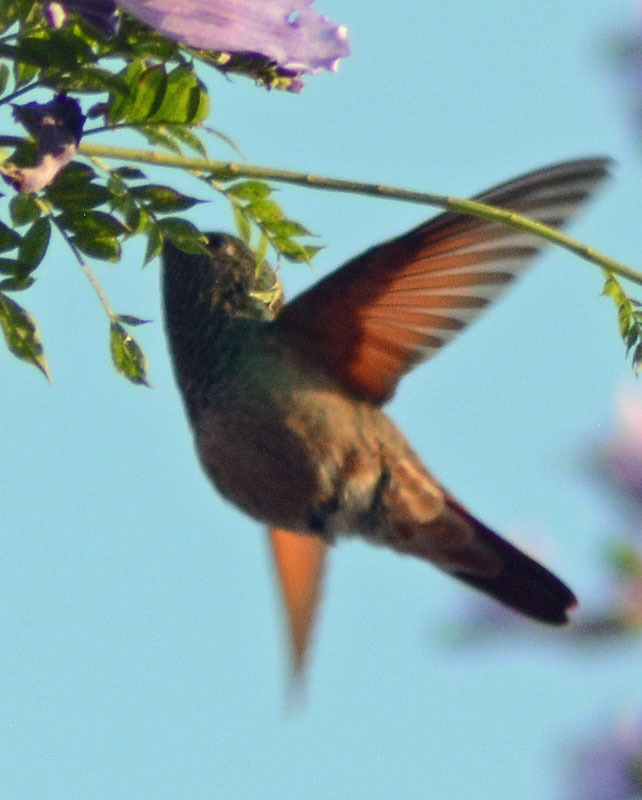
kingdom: Animalia
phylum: Chordata
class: Aves
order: Apodiformes
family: Trochilidae
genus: Saucerottia
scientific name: Saucerottia beryllina
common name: Berylline hummingbird
